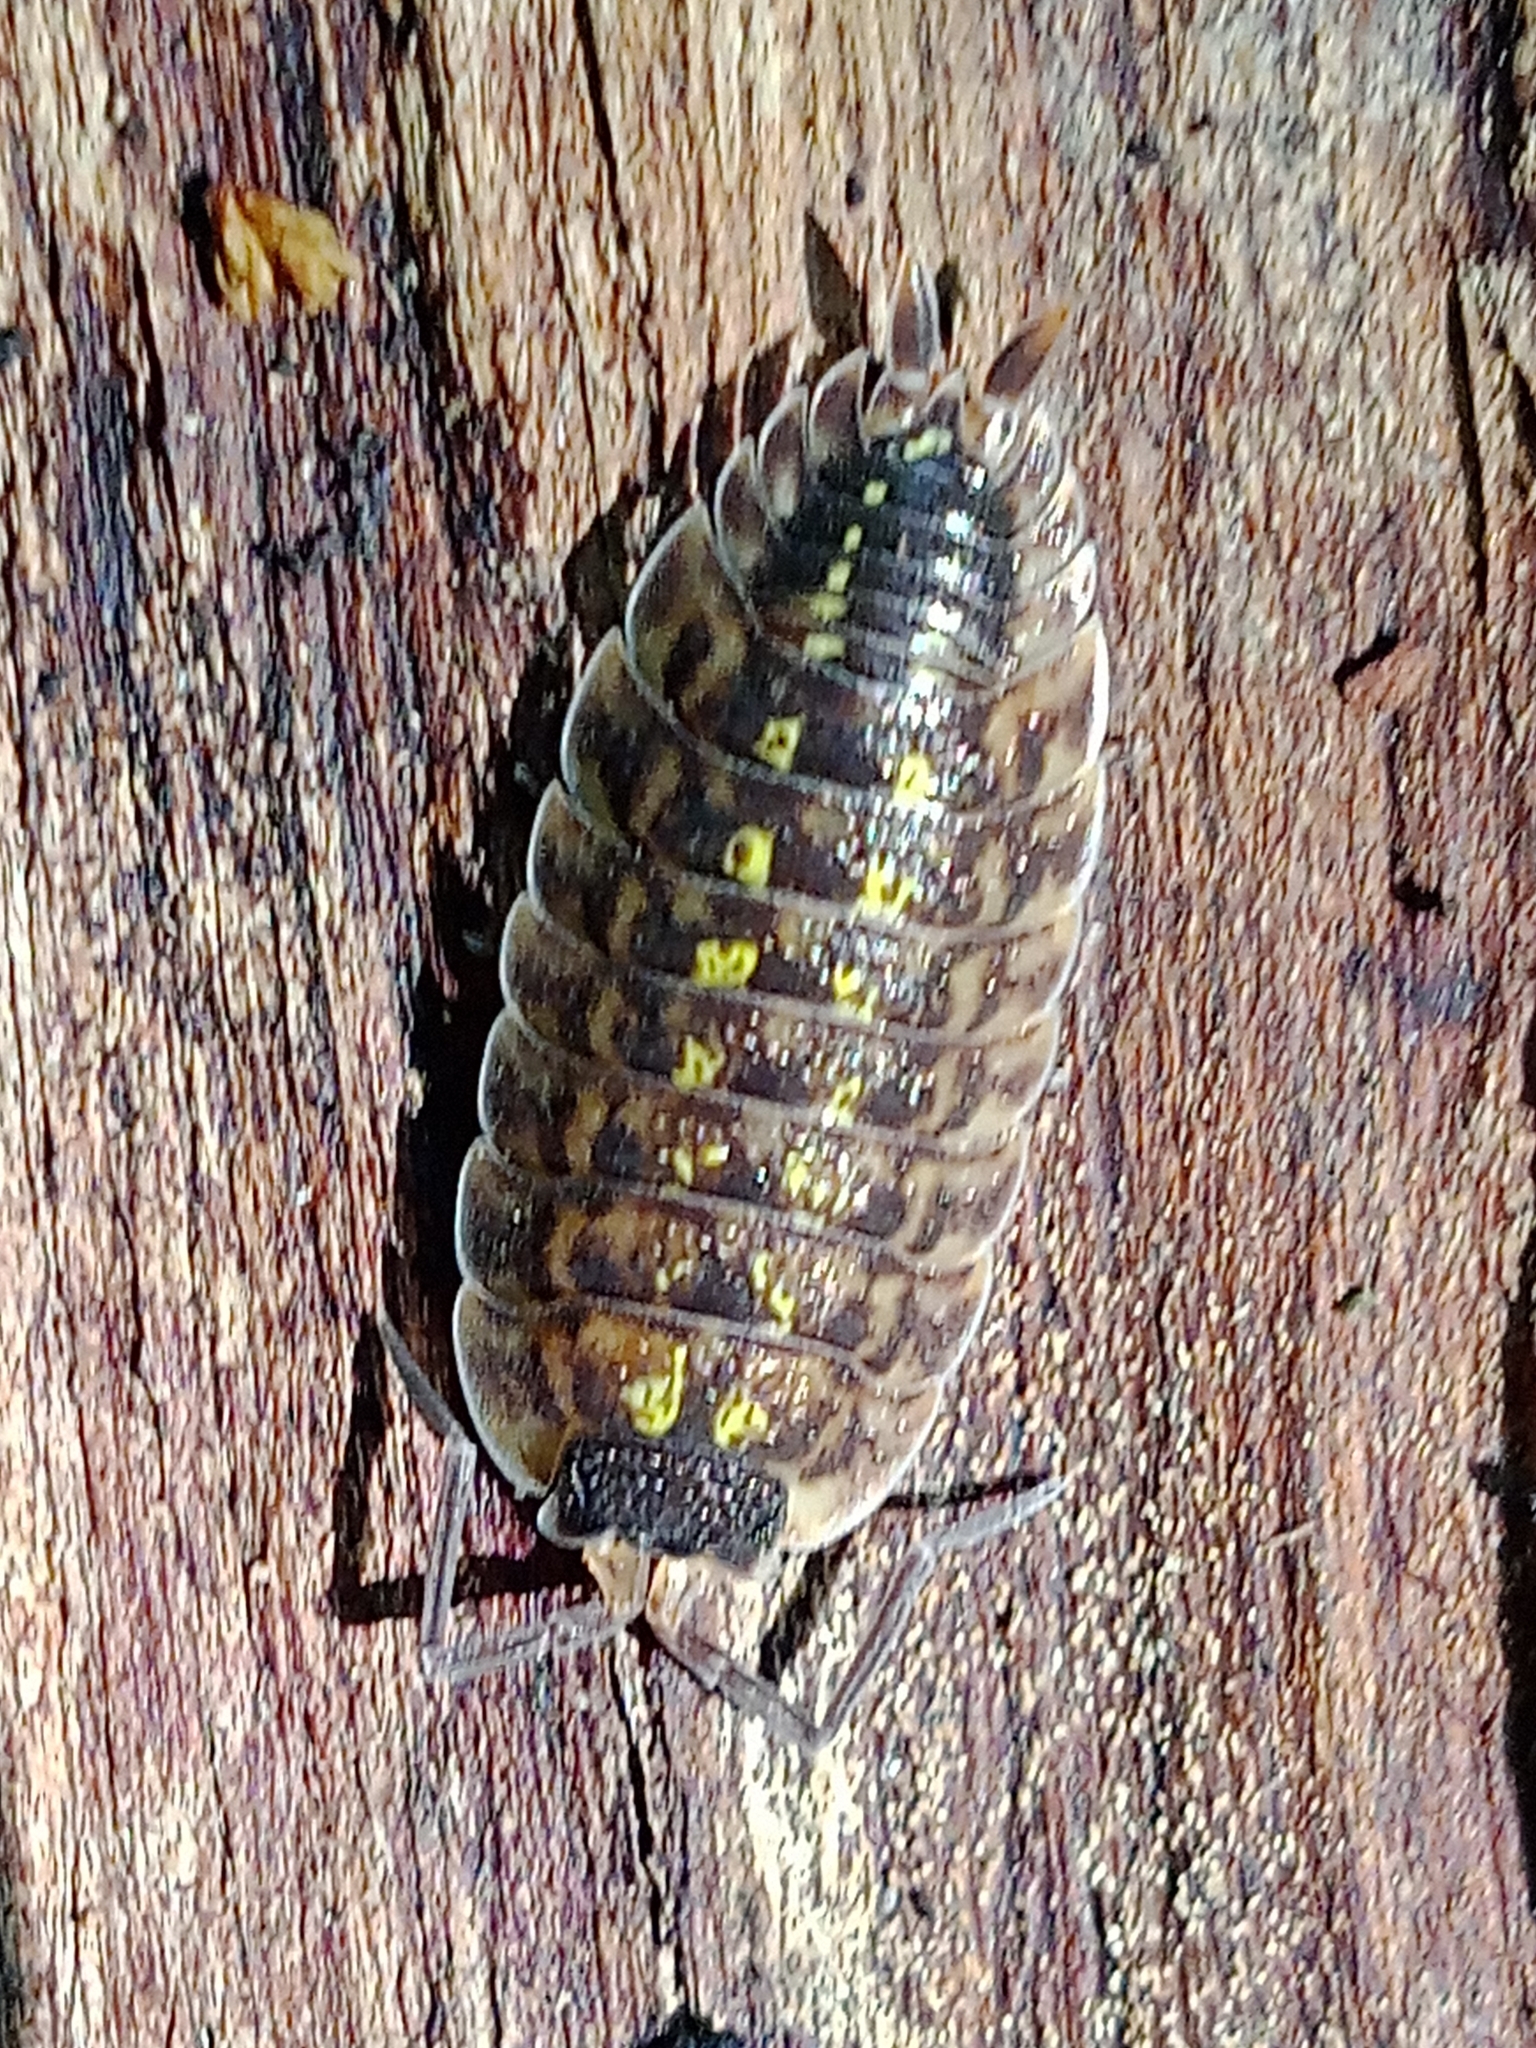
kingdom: Animalia
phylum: Arthropoda
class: Malacostraca
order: Isopoda
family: Porcellionidae
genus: Porcellio
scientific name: Porcellio spinicornis
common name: Painted woodlouse
